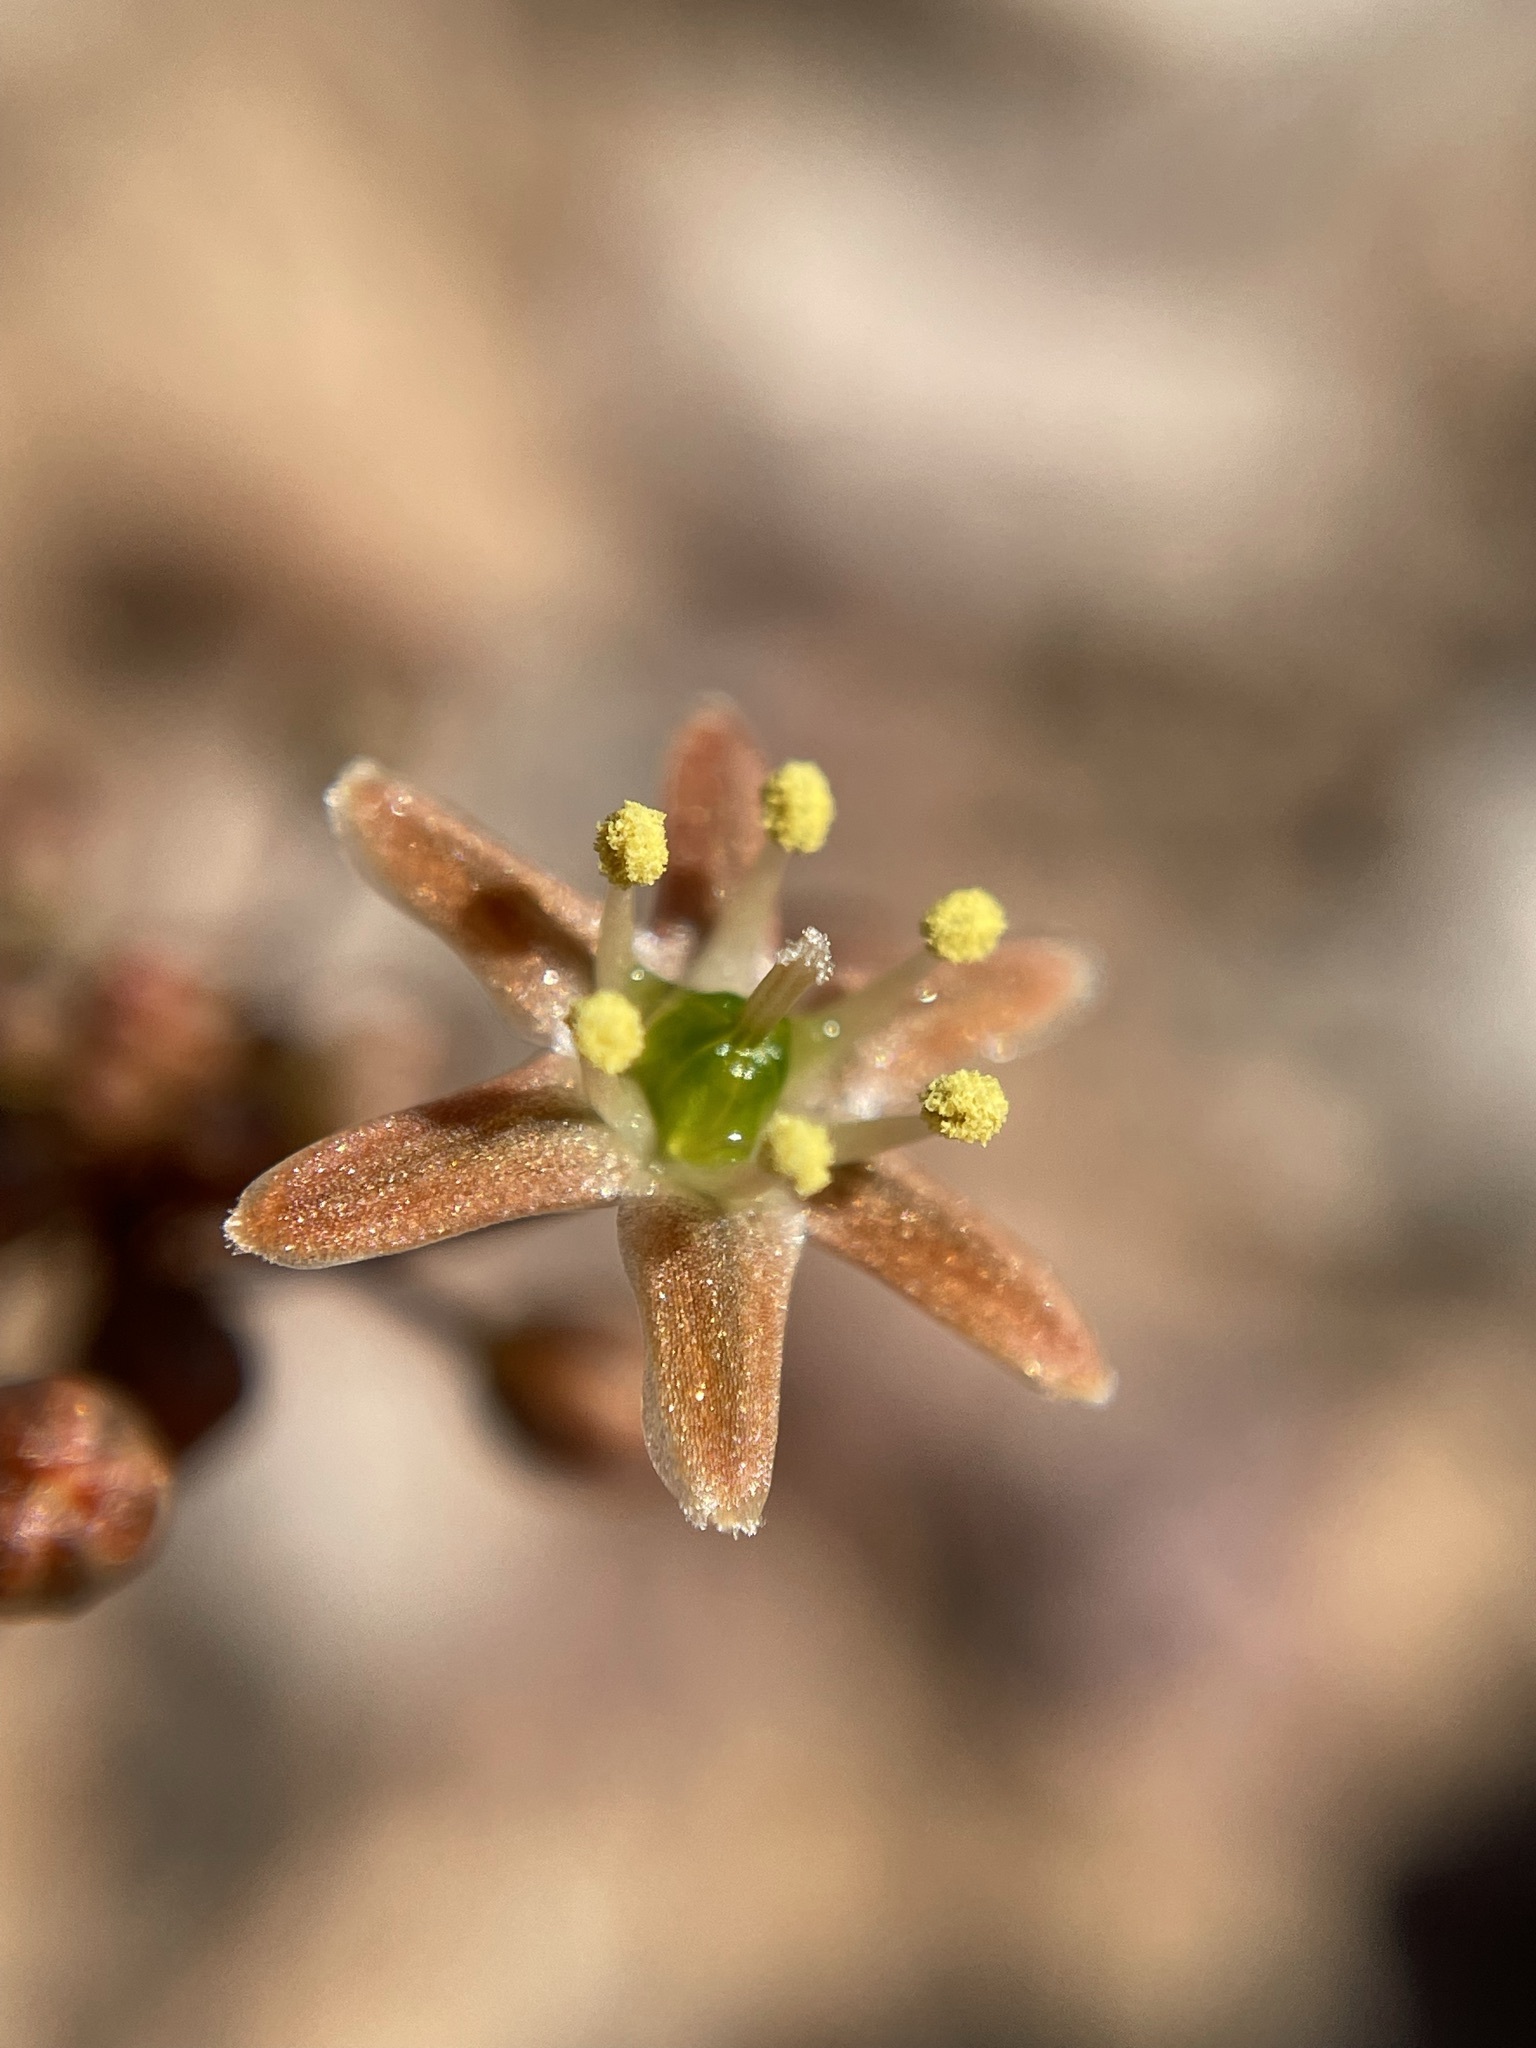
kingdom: Plantae
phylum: Tracheophyta
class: Liliopsida
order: Asparagales
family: Asparagaceae
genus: Austronea
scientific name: Austronea vermiformis
